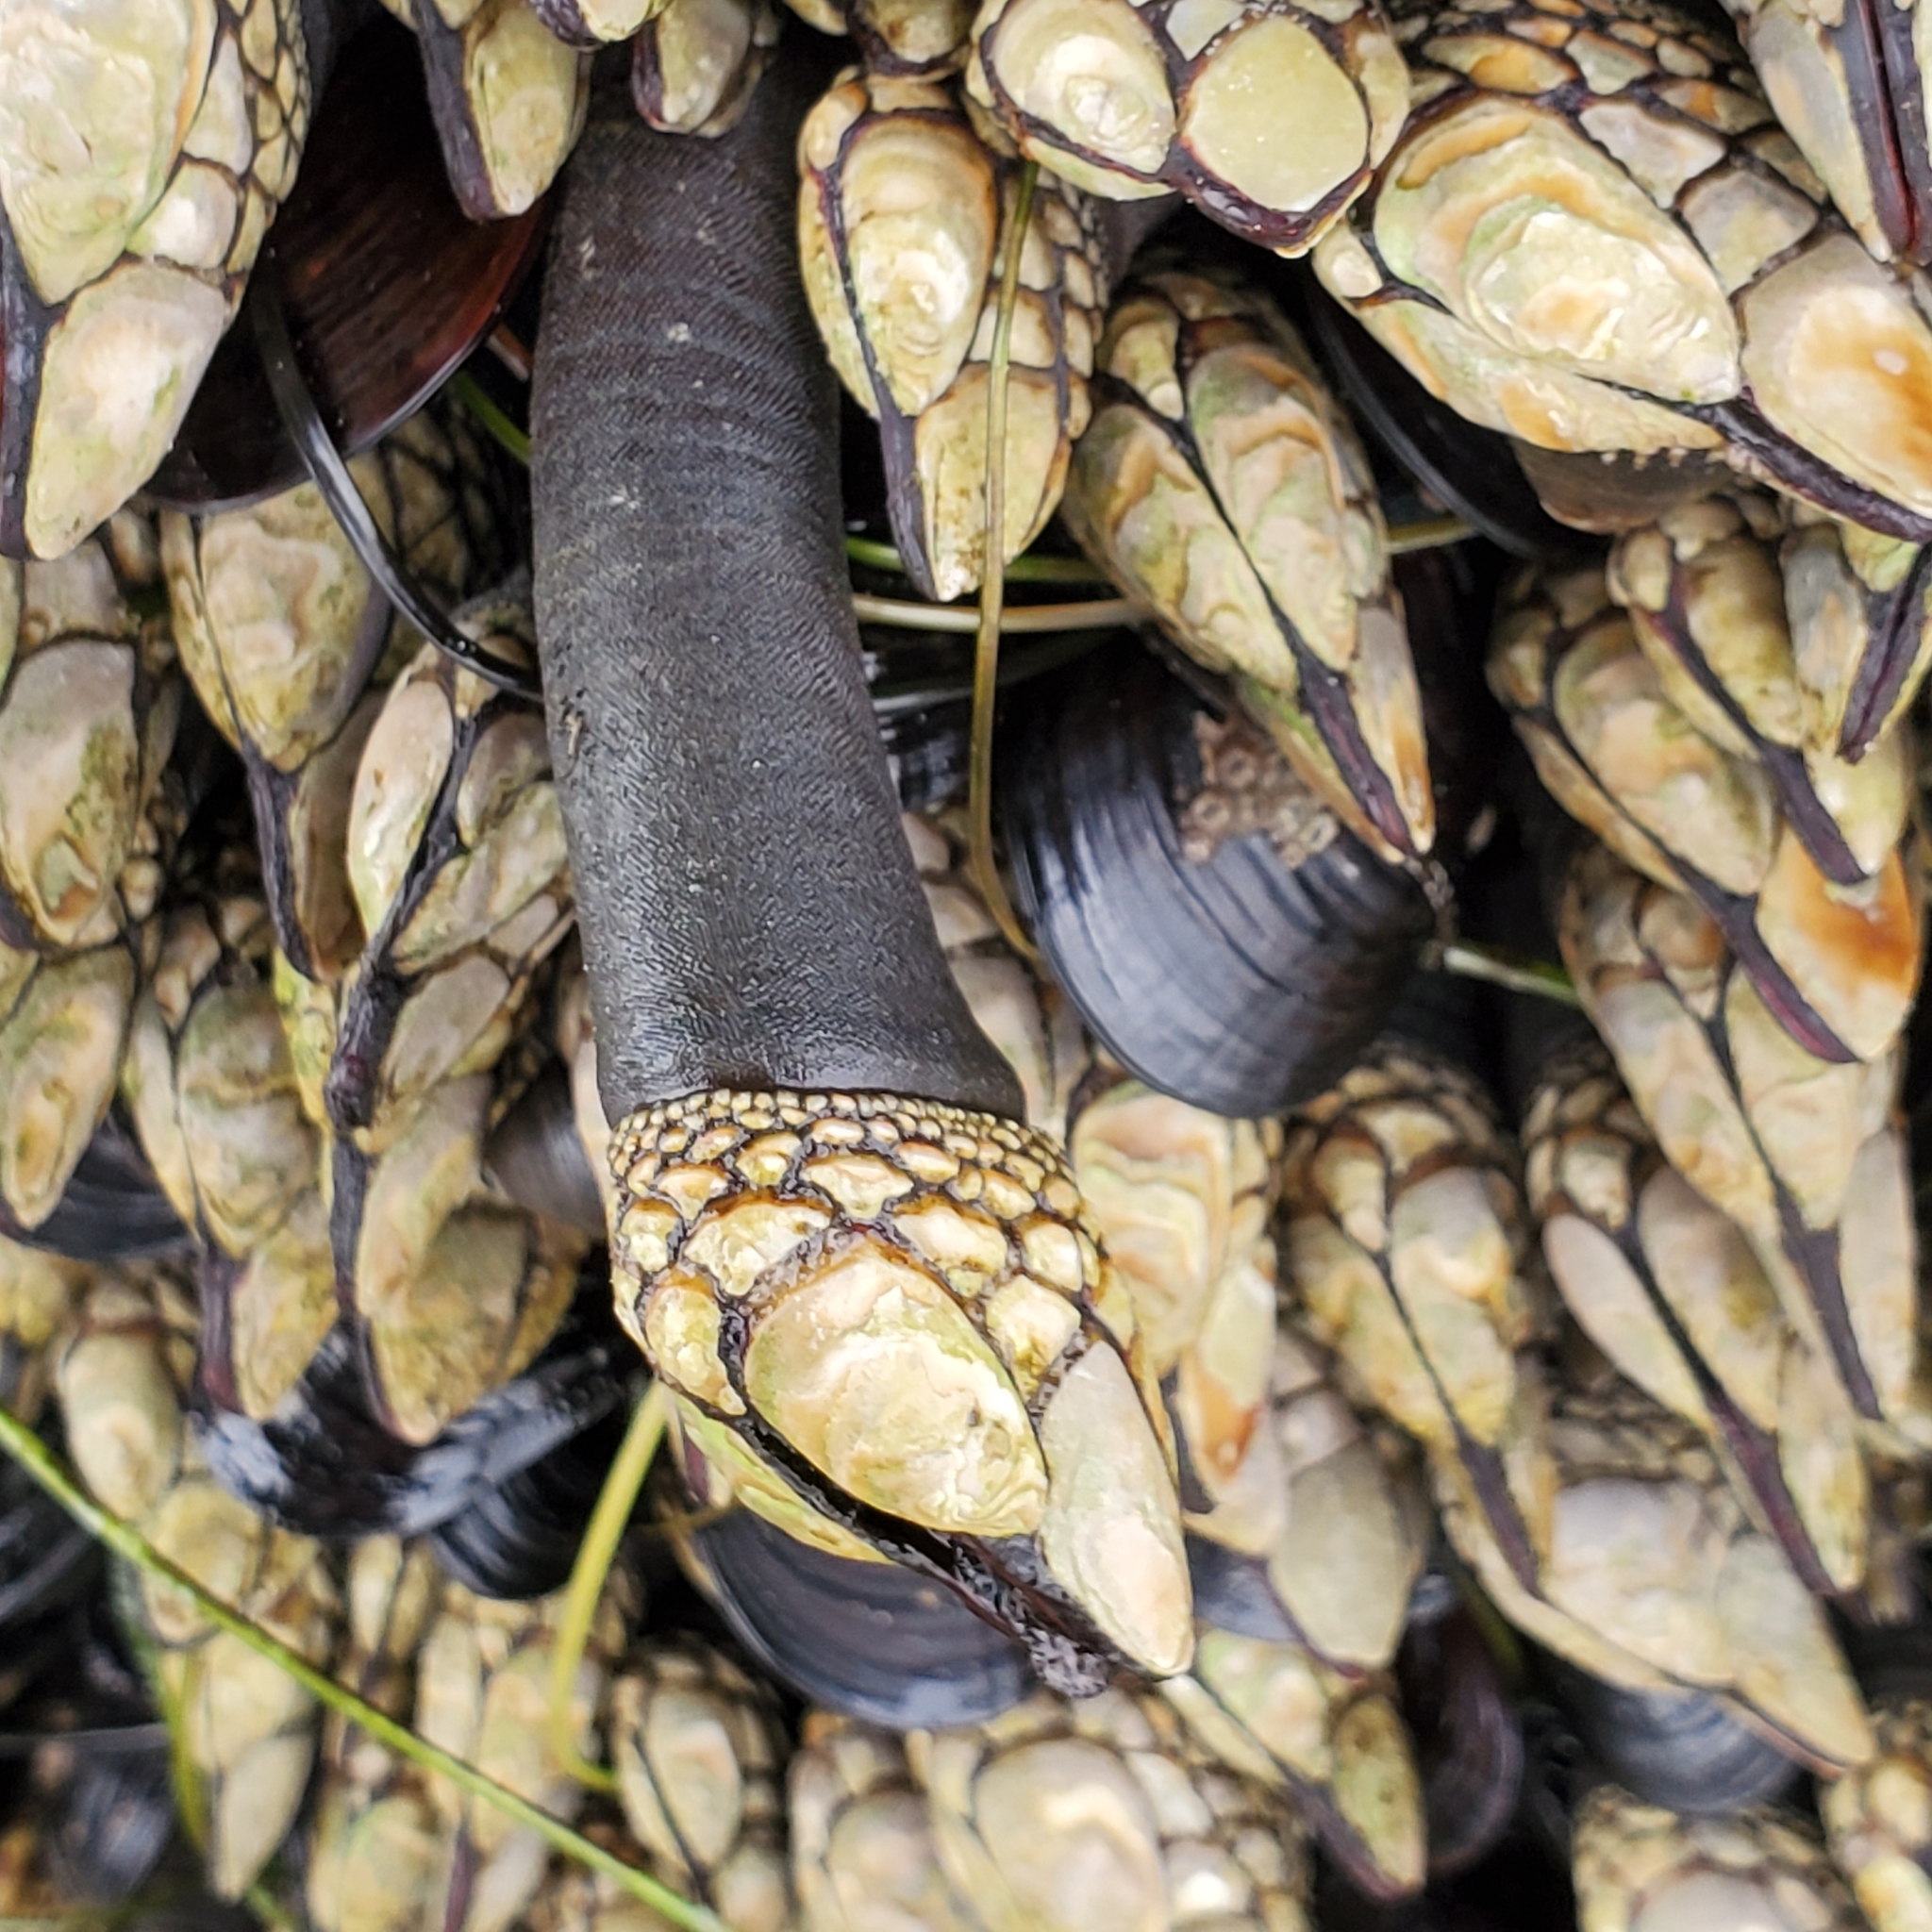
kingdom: Animalia
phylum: Arthropoda
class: Maxillopoda
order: Pedunculata
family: Pollicipedidae
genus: Pollicipes
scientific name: Pollicipes polymerus
